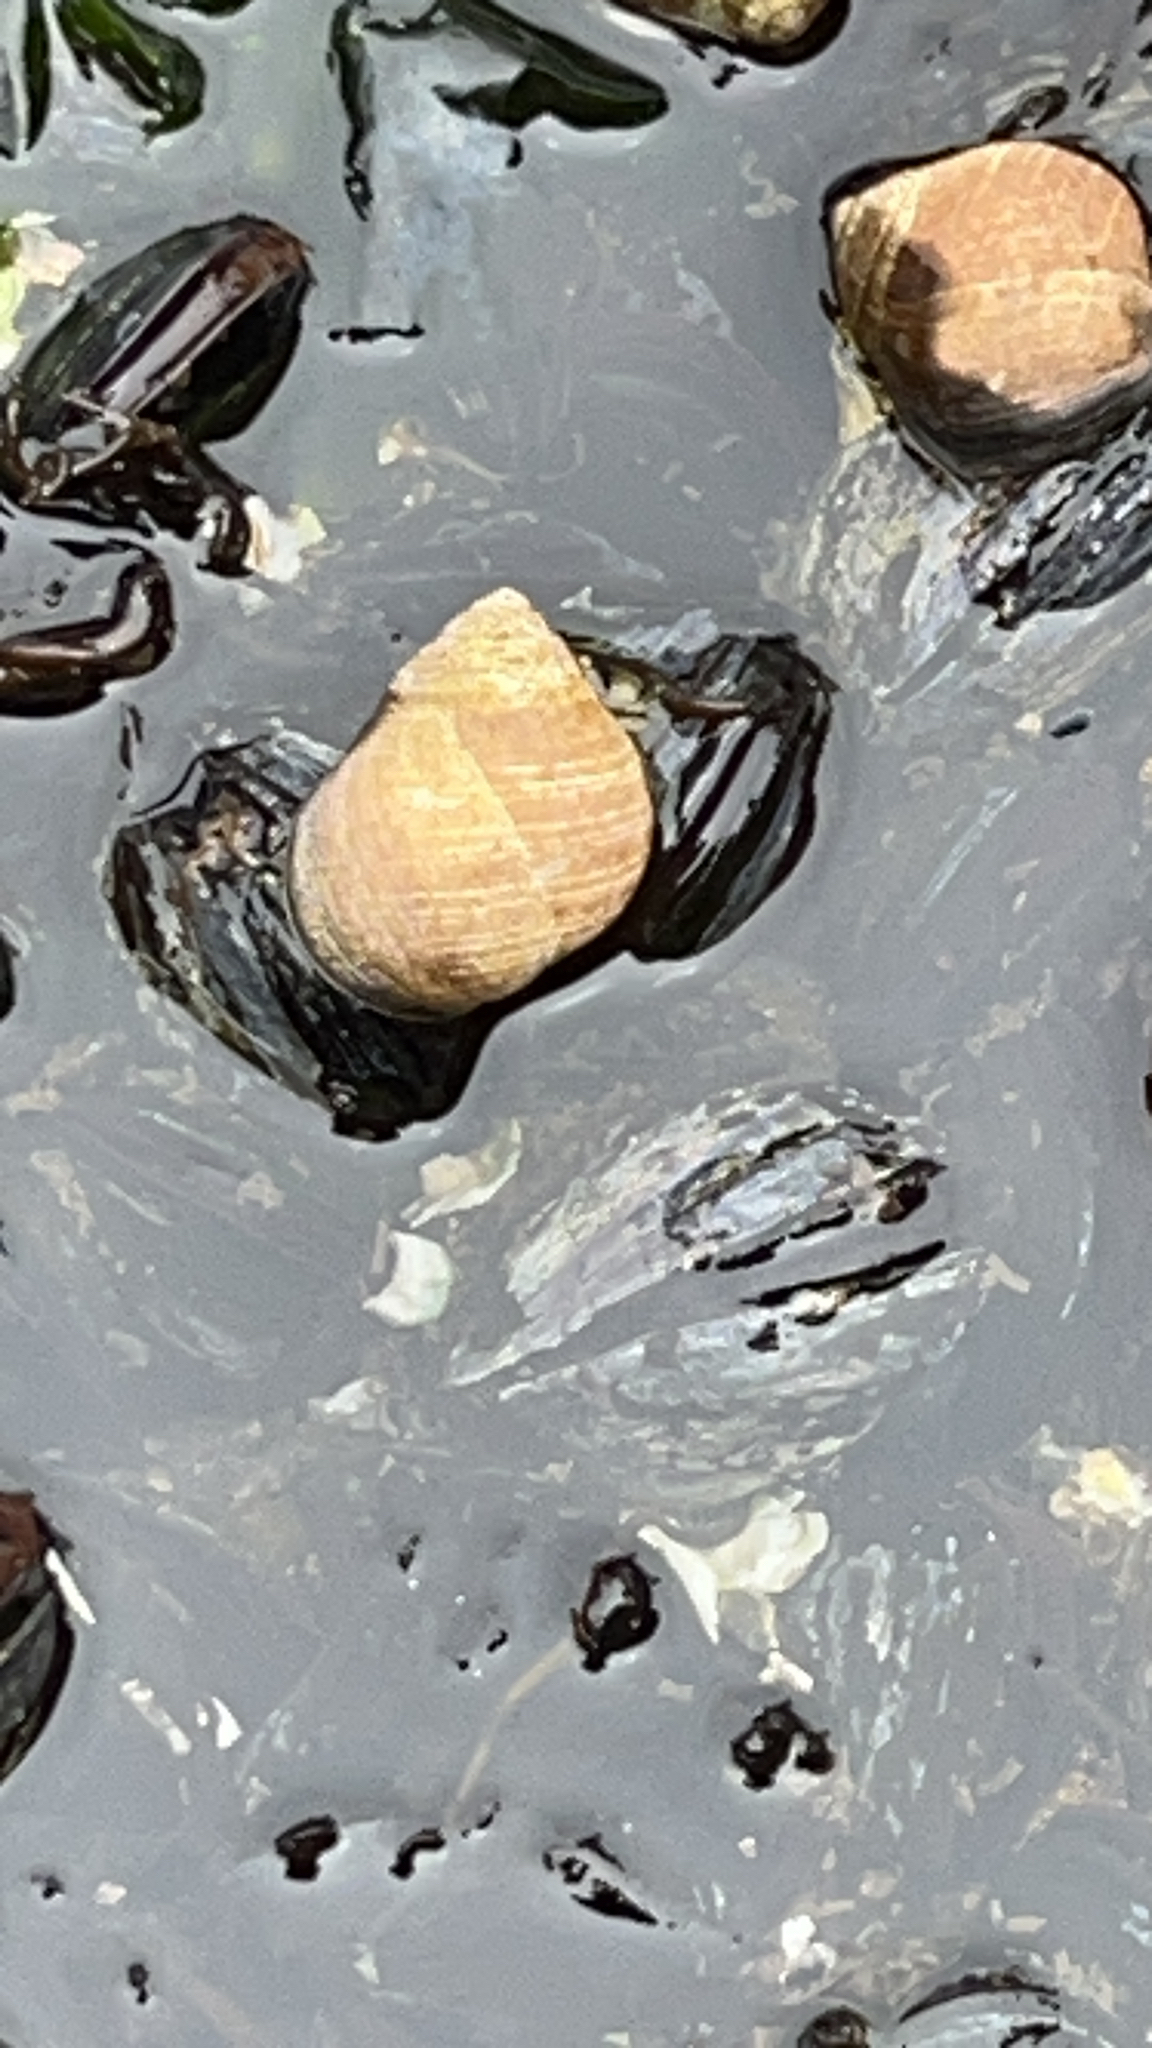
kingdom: Animalia
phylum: Mollusca
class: Gastropoda
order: Littorinimorpha
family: Littorinidae
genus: Littorina
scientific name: Littorina littorea
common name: Common periwinkle
